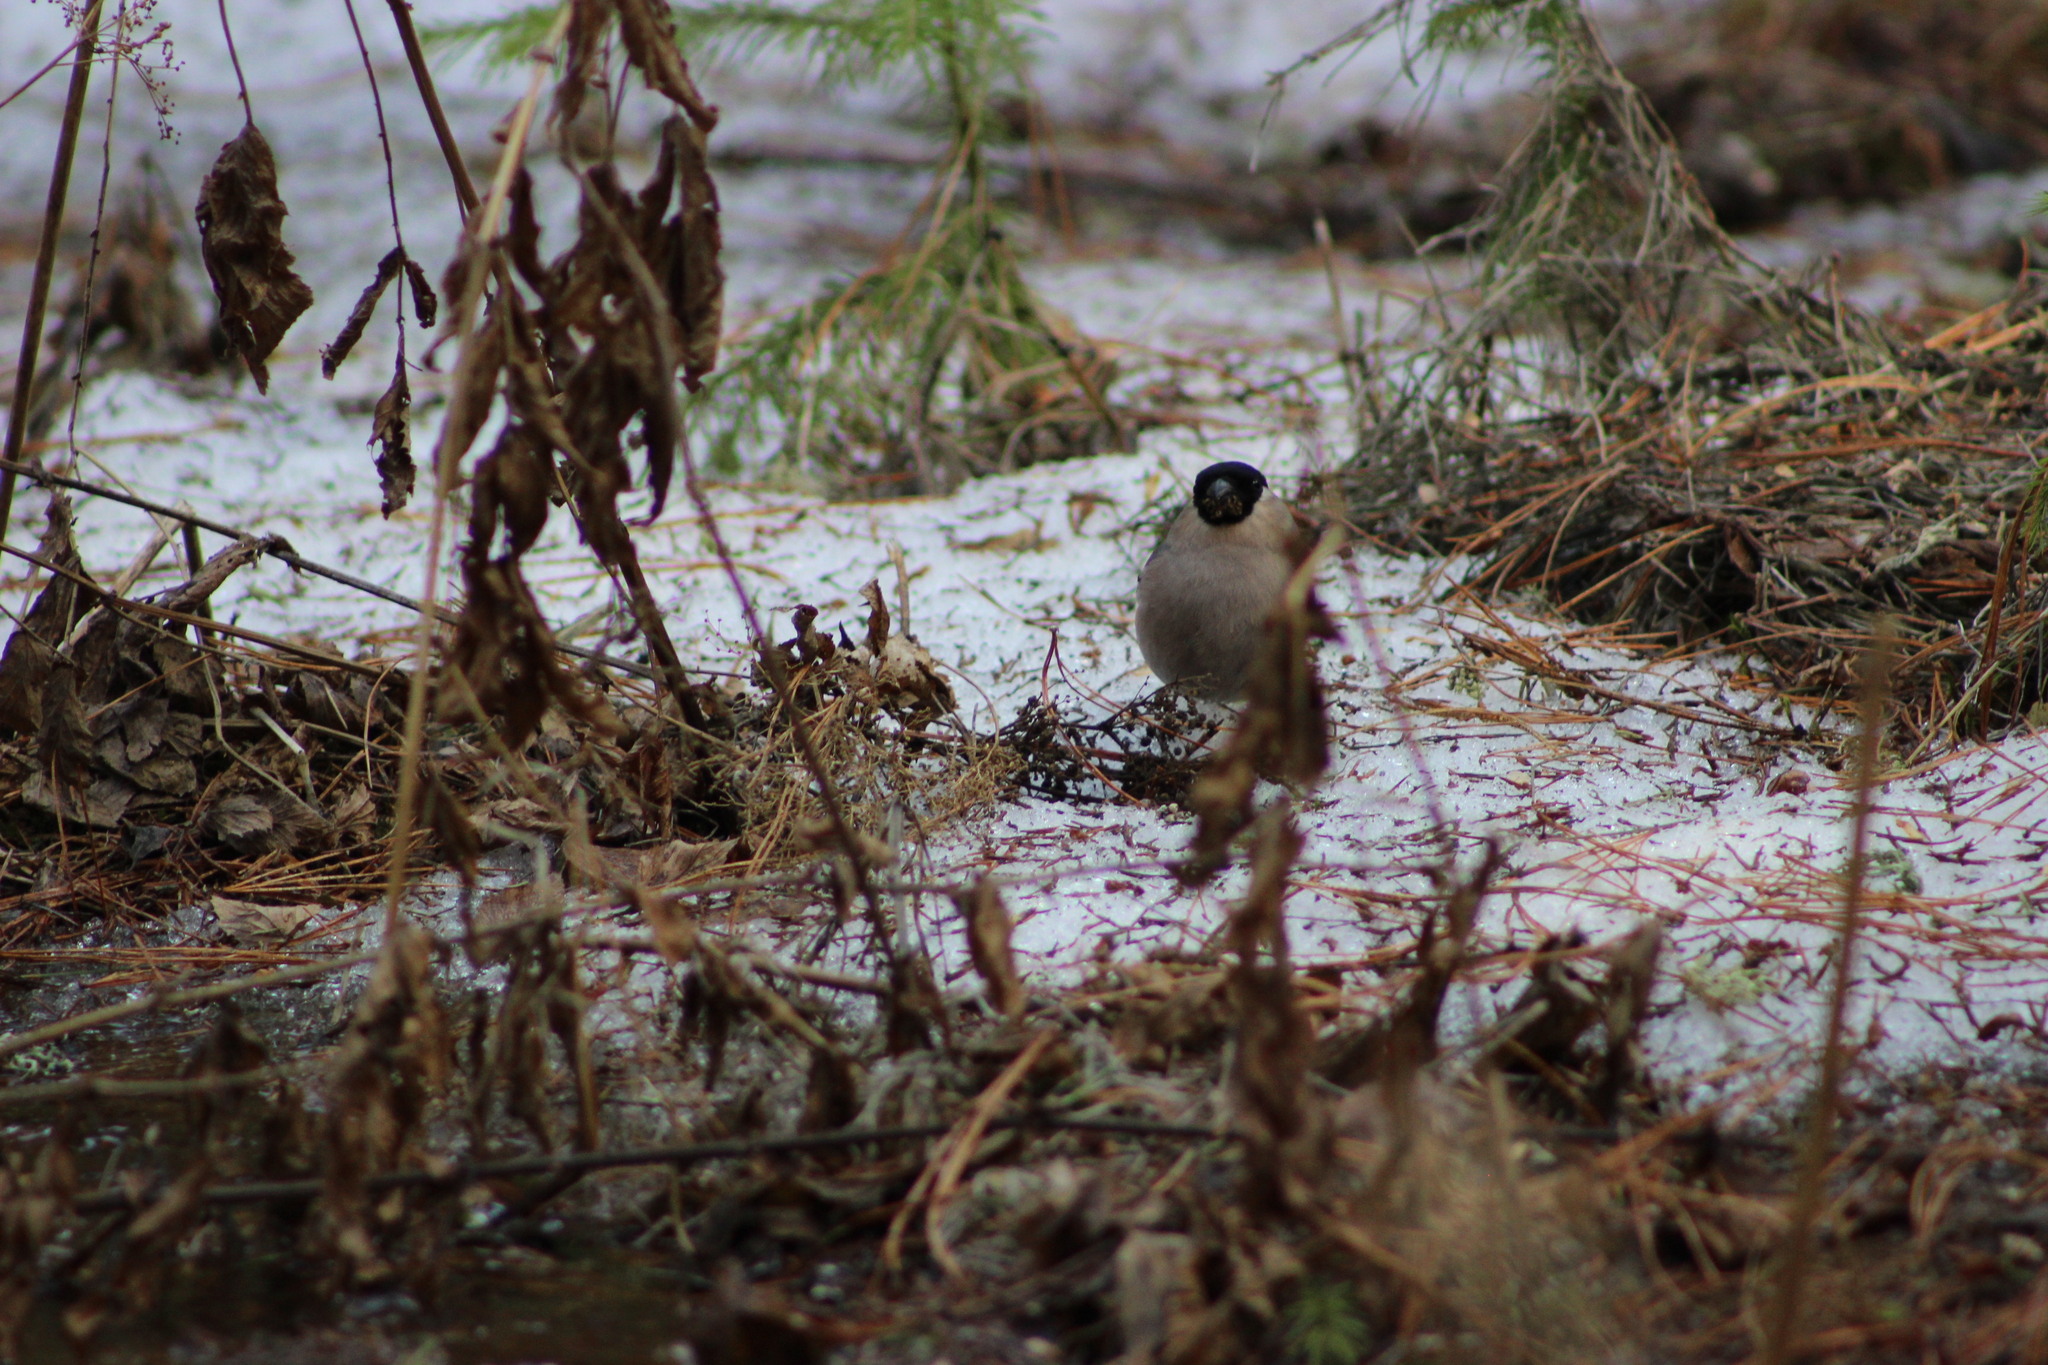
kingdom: Animalia
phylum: Chordata
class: Aves
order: Passeriformes
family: Fringillidae
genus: Pyrrhula
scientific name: Pyrrhula pyrrhula
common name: Eurasian bullfinch
